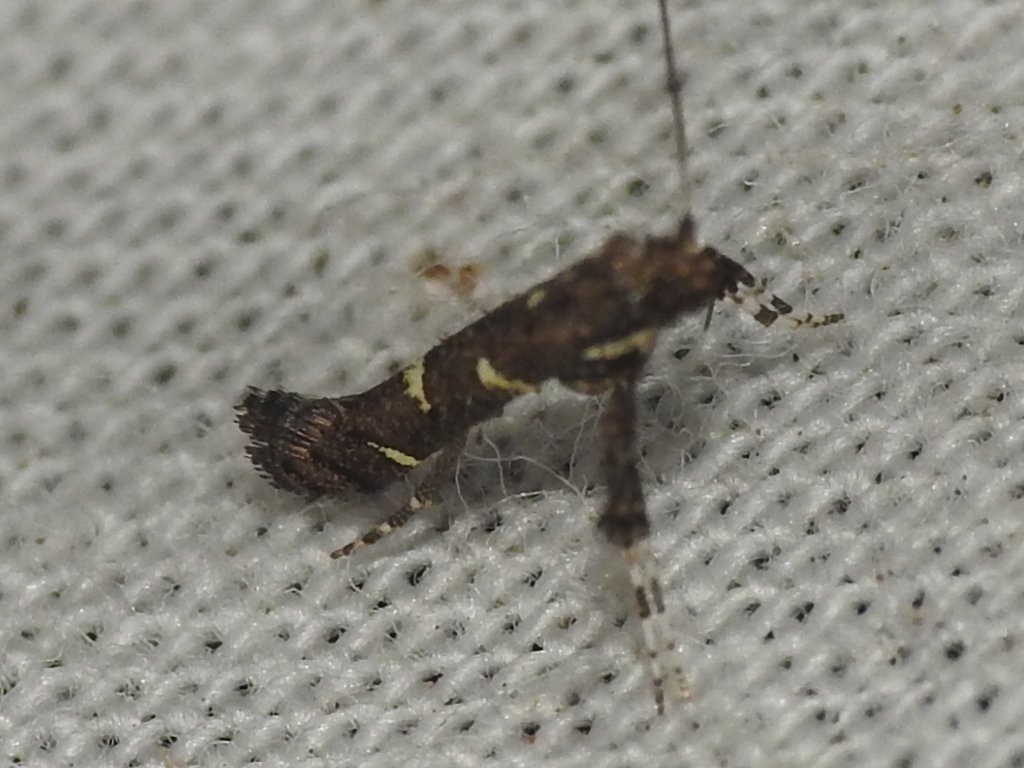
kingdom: Animalia
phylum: Arthropoda
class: Insecta
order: Lepidoptera
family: Gracillariidae
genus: Caloptilia
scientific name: Caloptilia triadicae
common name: Tallow leaf roller
